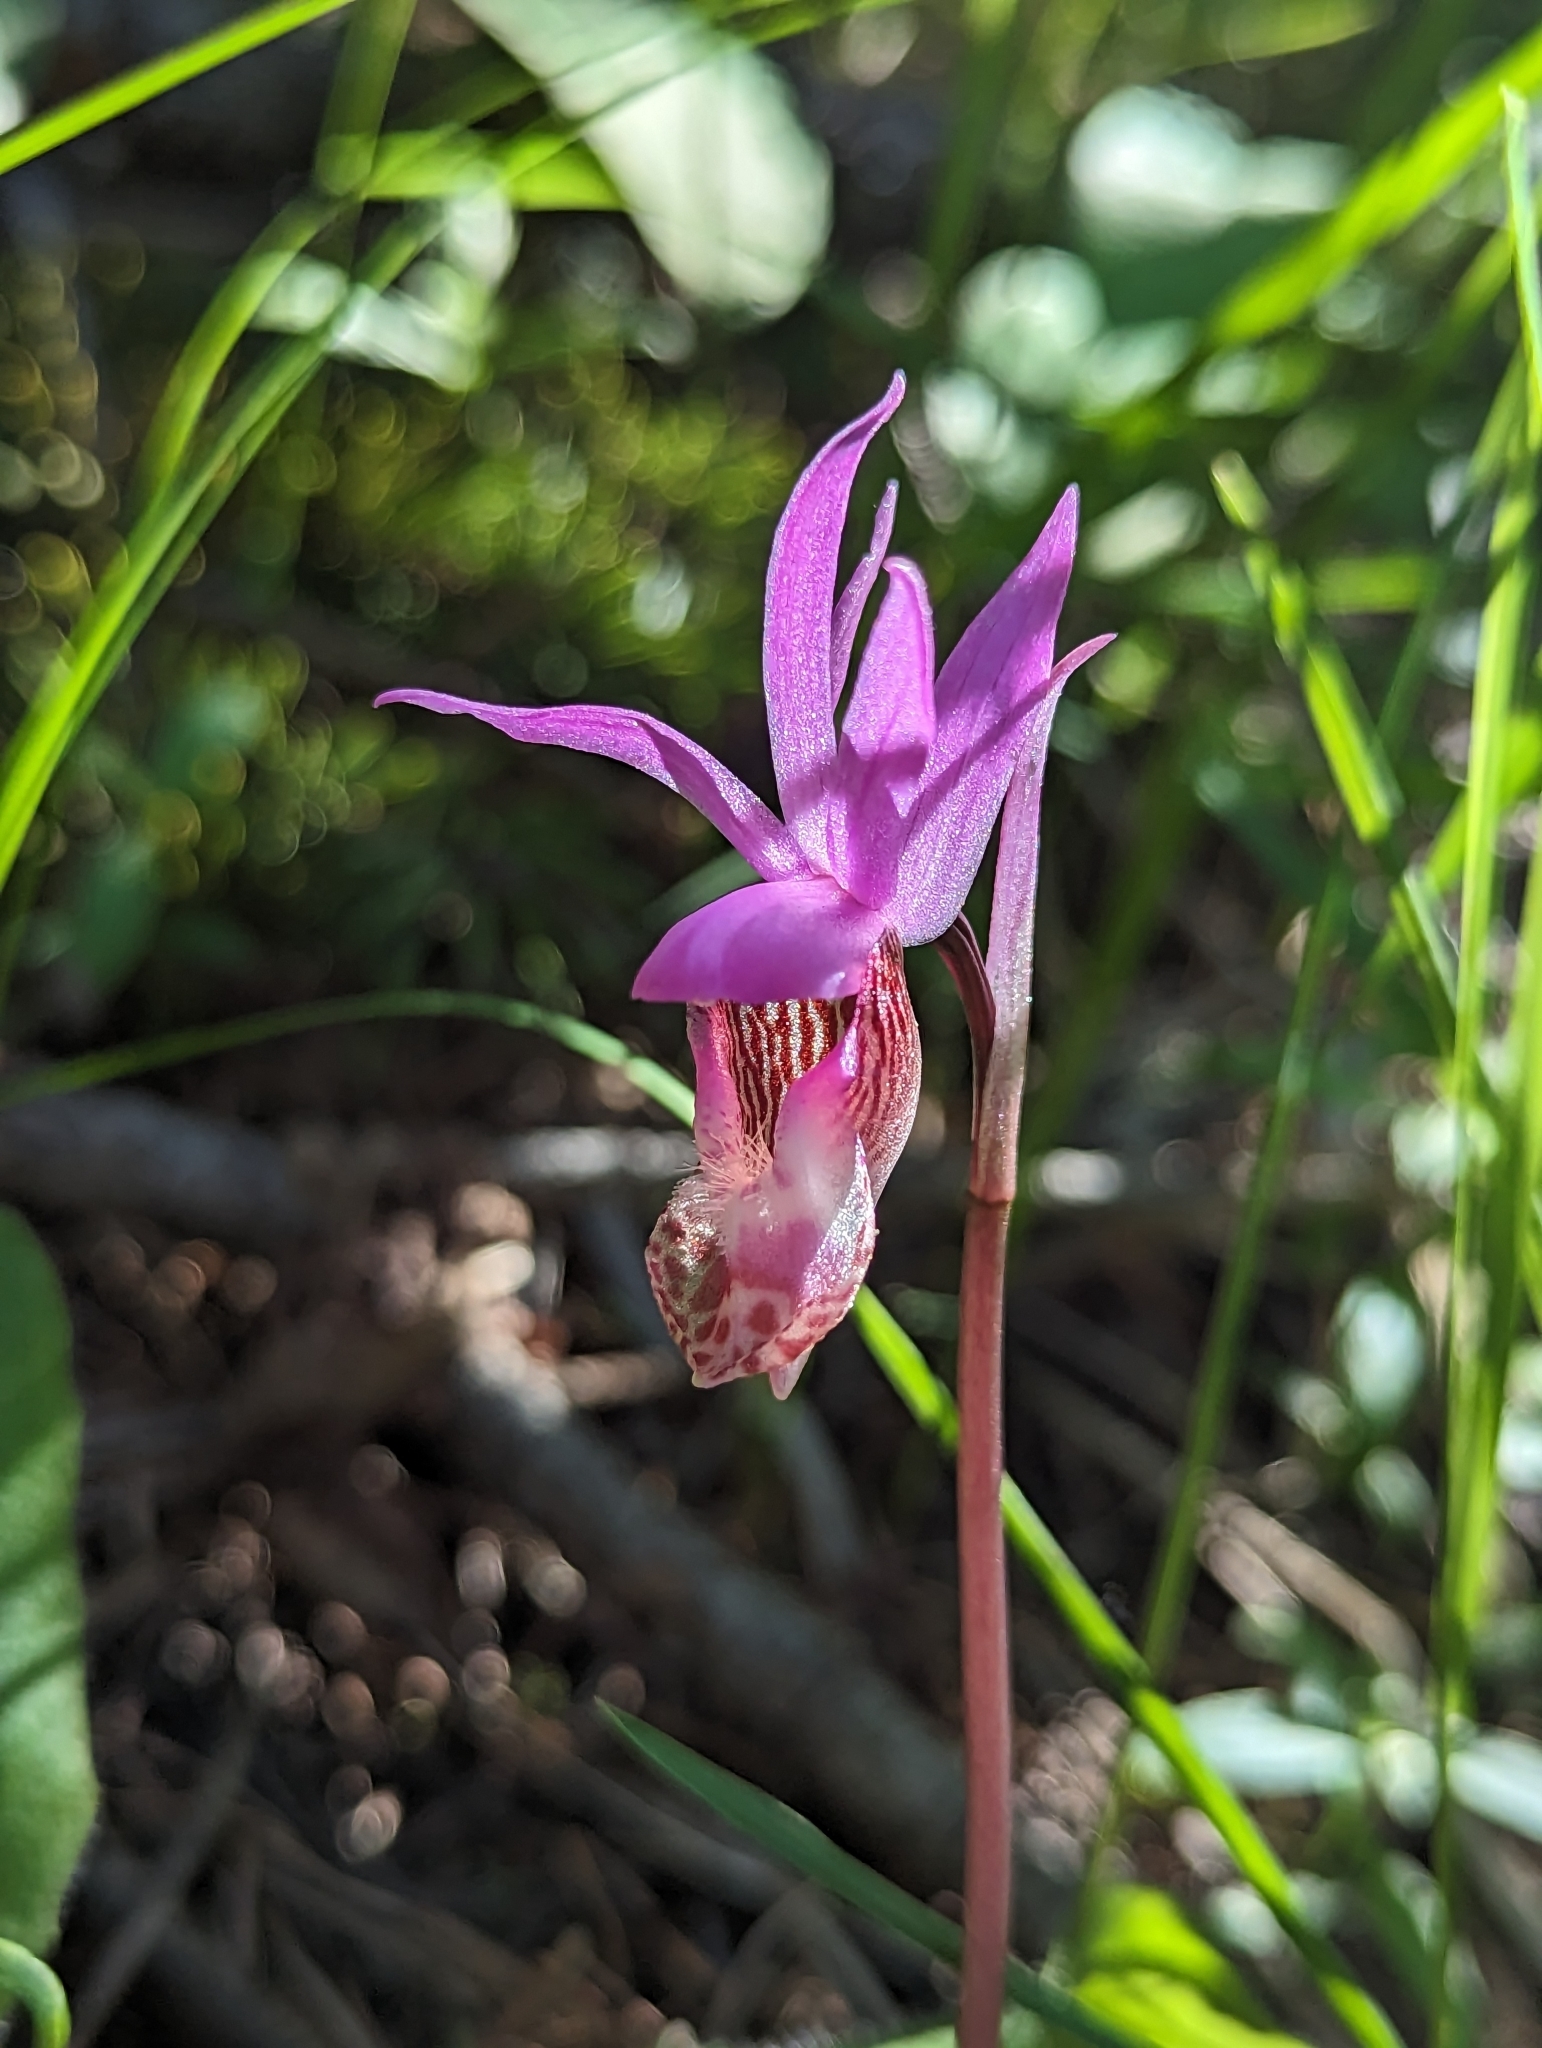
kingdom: Plantae
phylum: Tracheophyta
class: Liliopsida
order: Asparagales
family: Orchidaceae
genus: Calypso
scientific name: Calypso bulbosa
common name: Calypso
